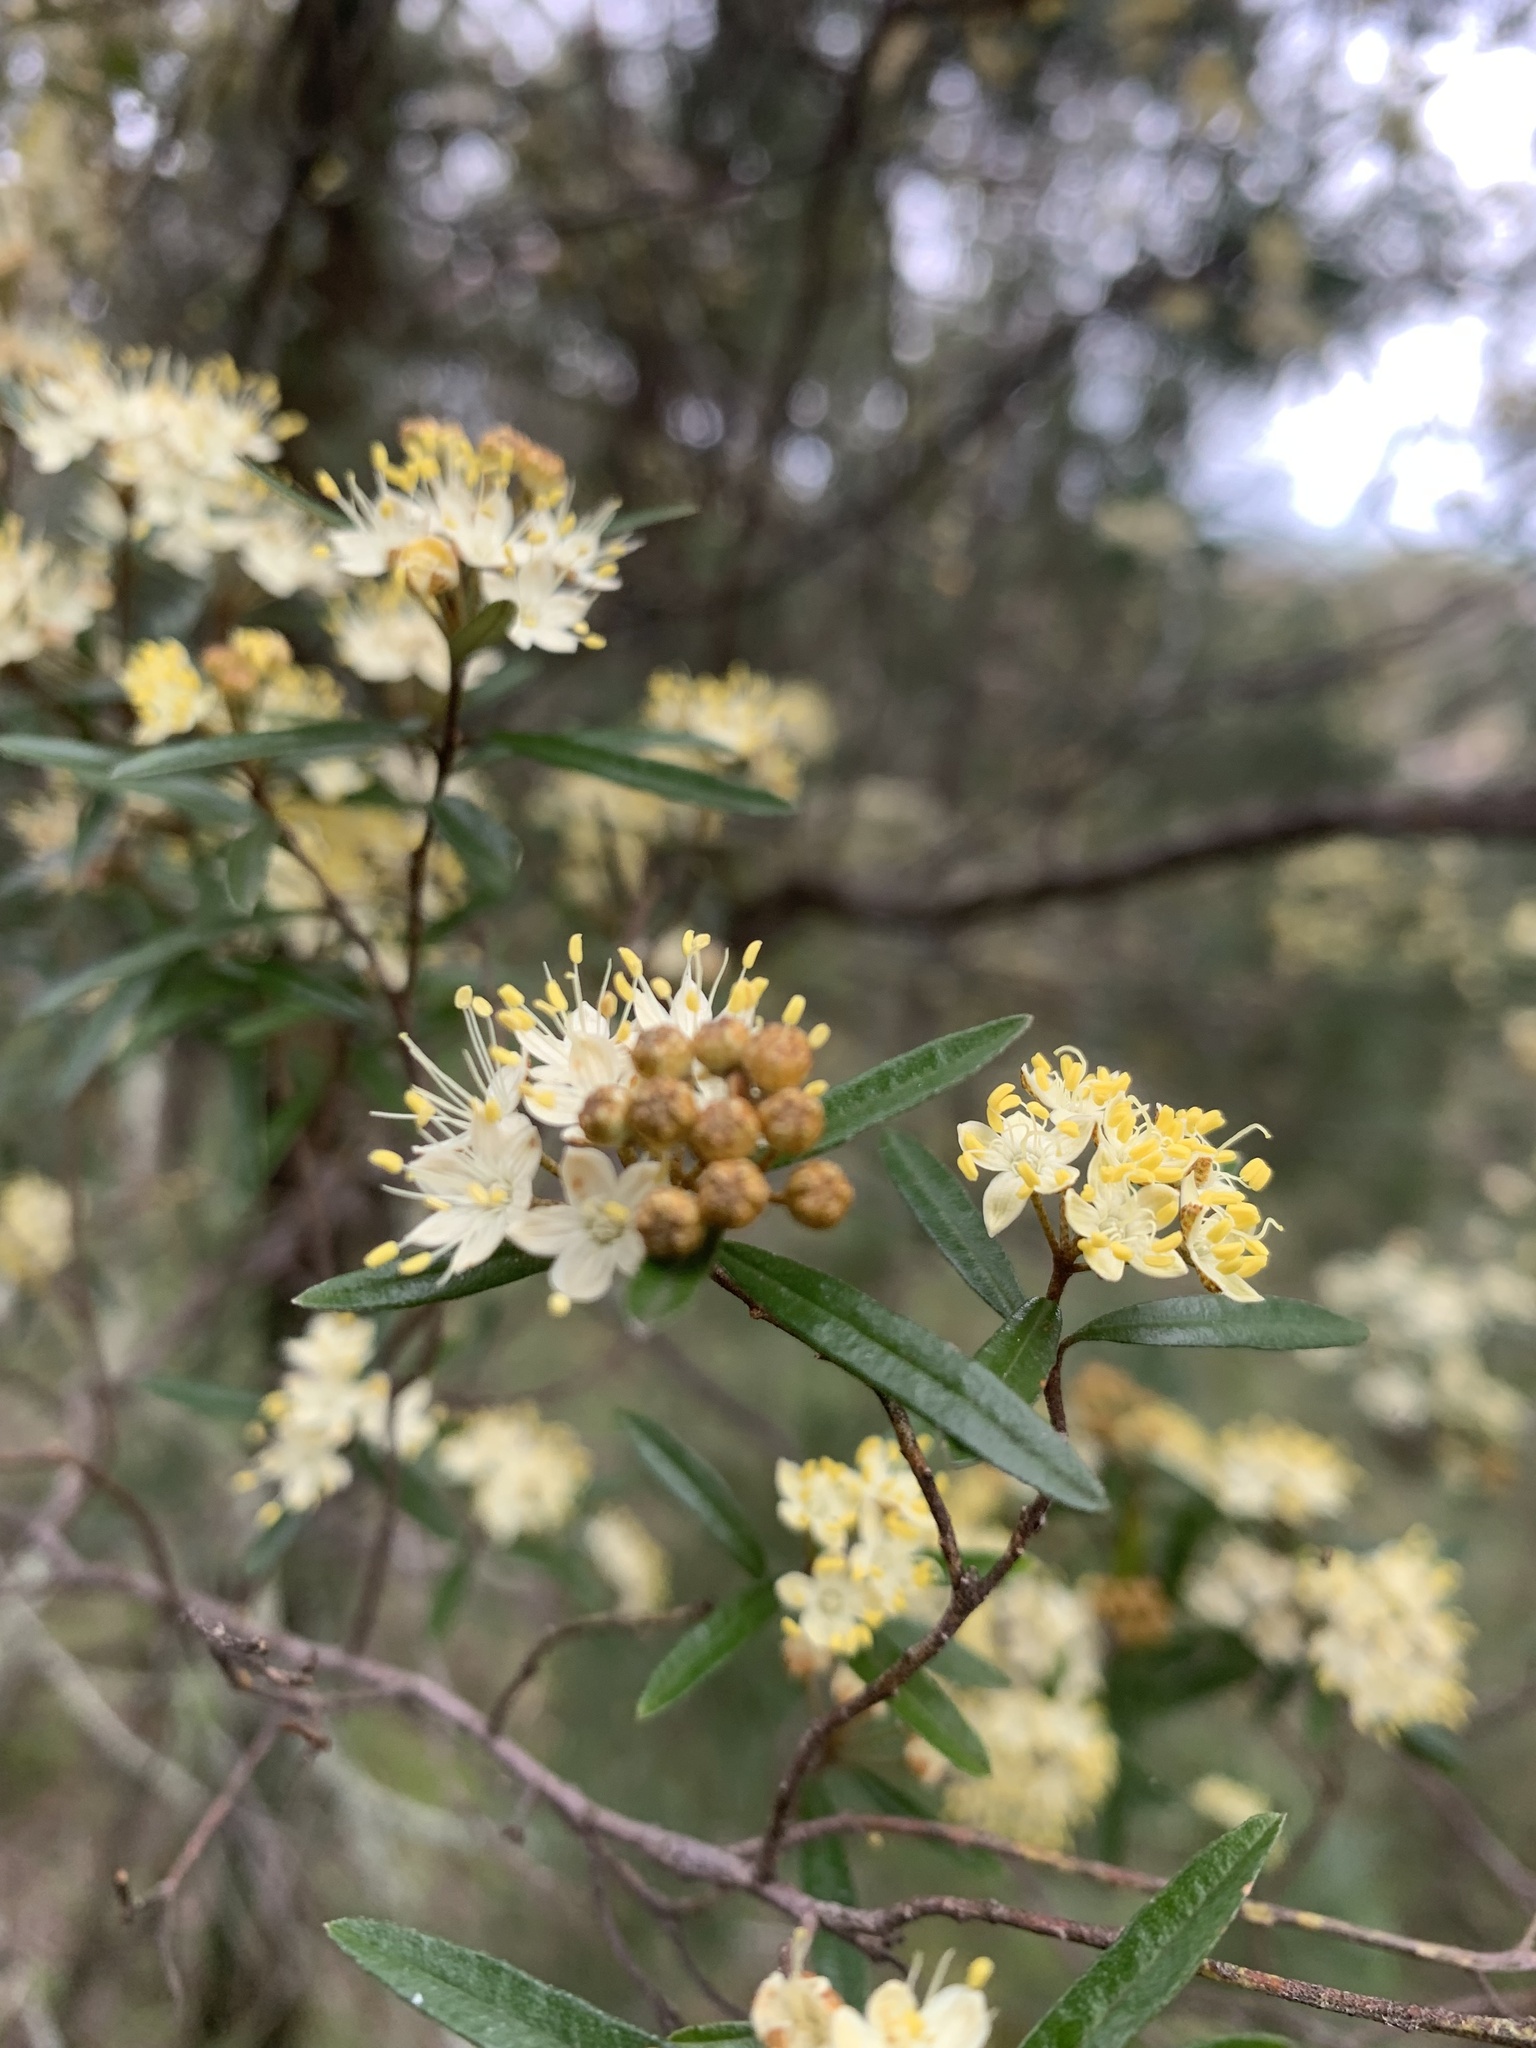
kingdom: Plantae
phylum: Tracheophyta
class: Magnoliopsida
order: Sapindales
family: Rutaceae
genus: Phebalium
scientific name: Phebalium squamulosum
